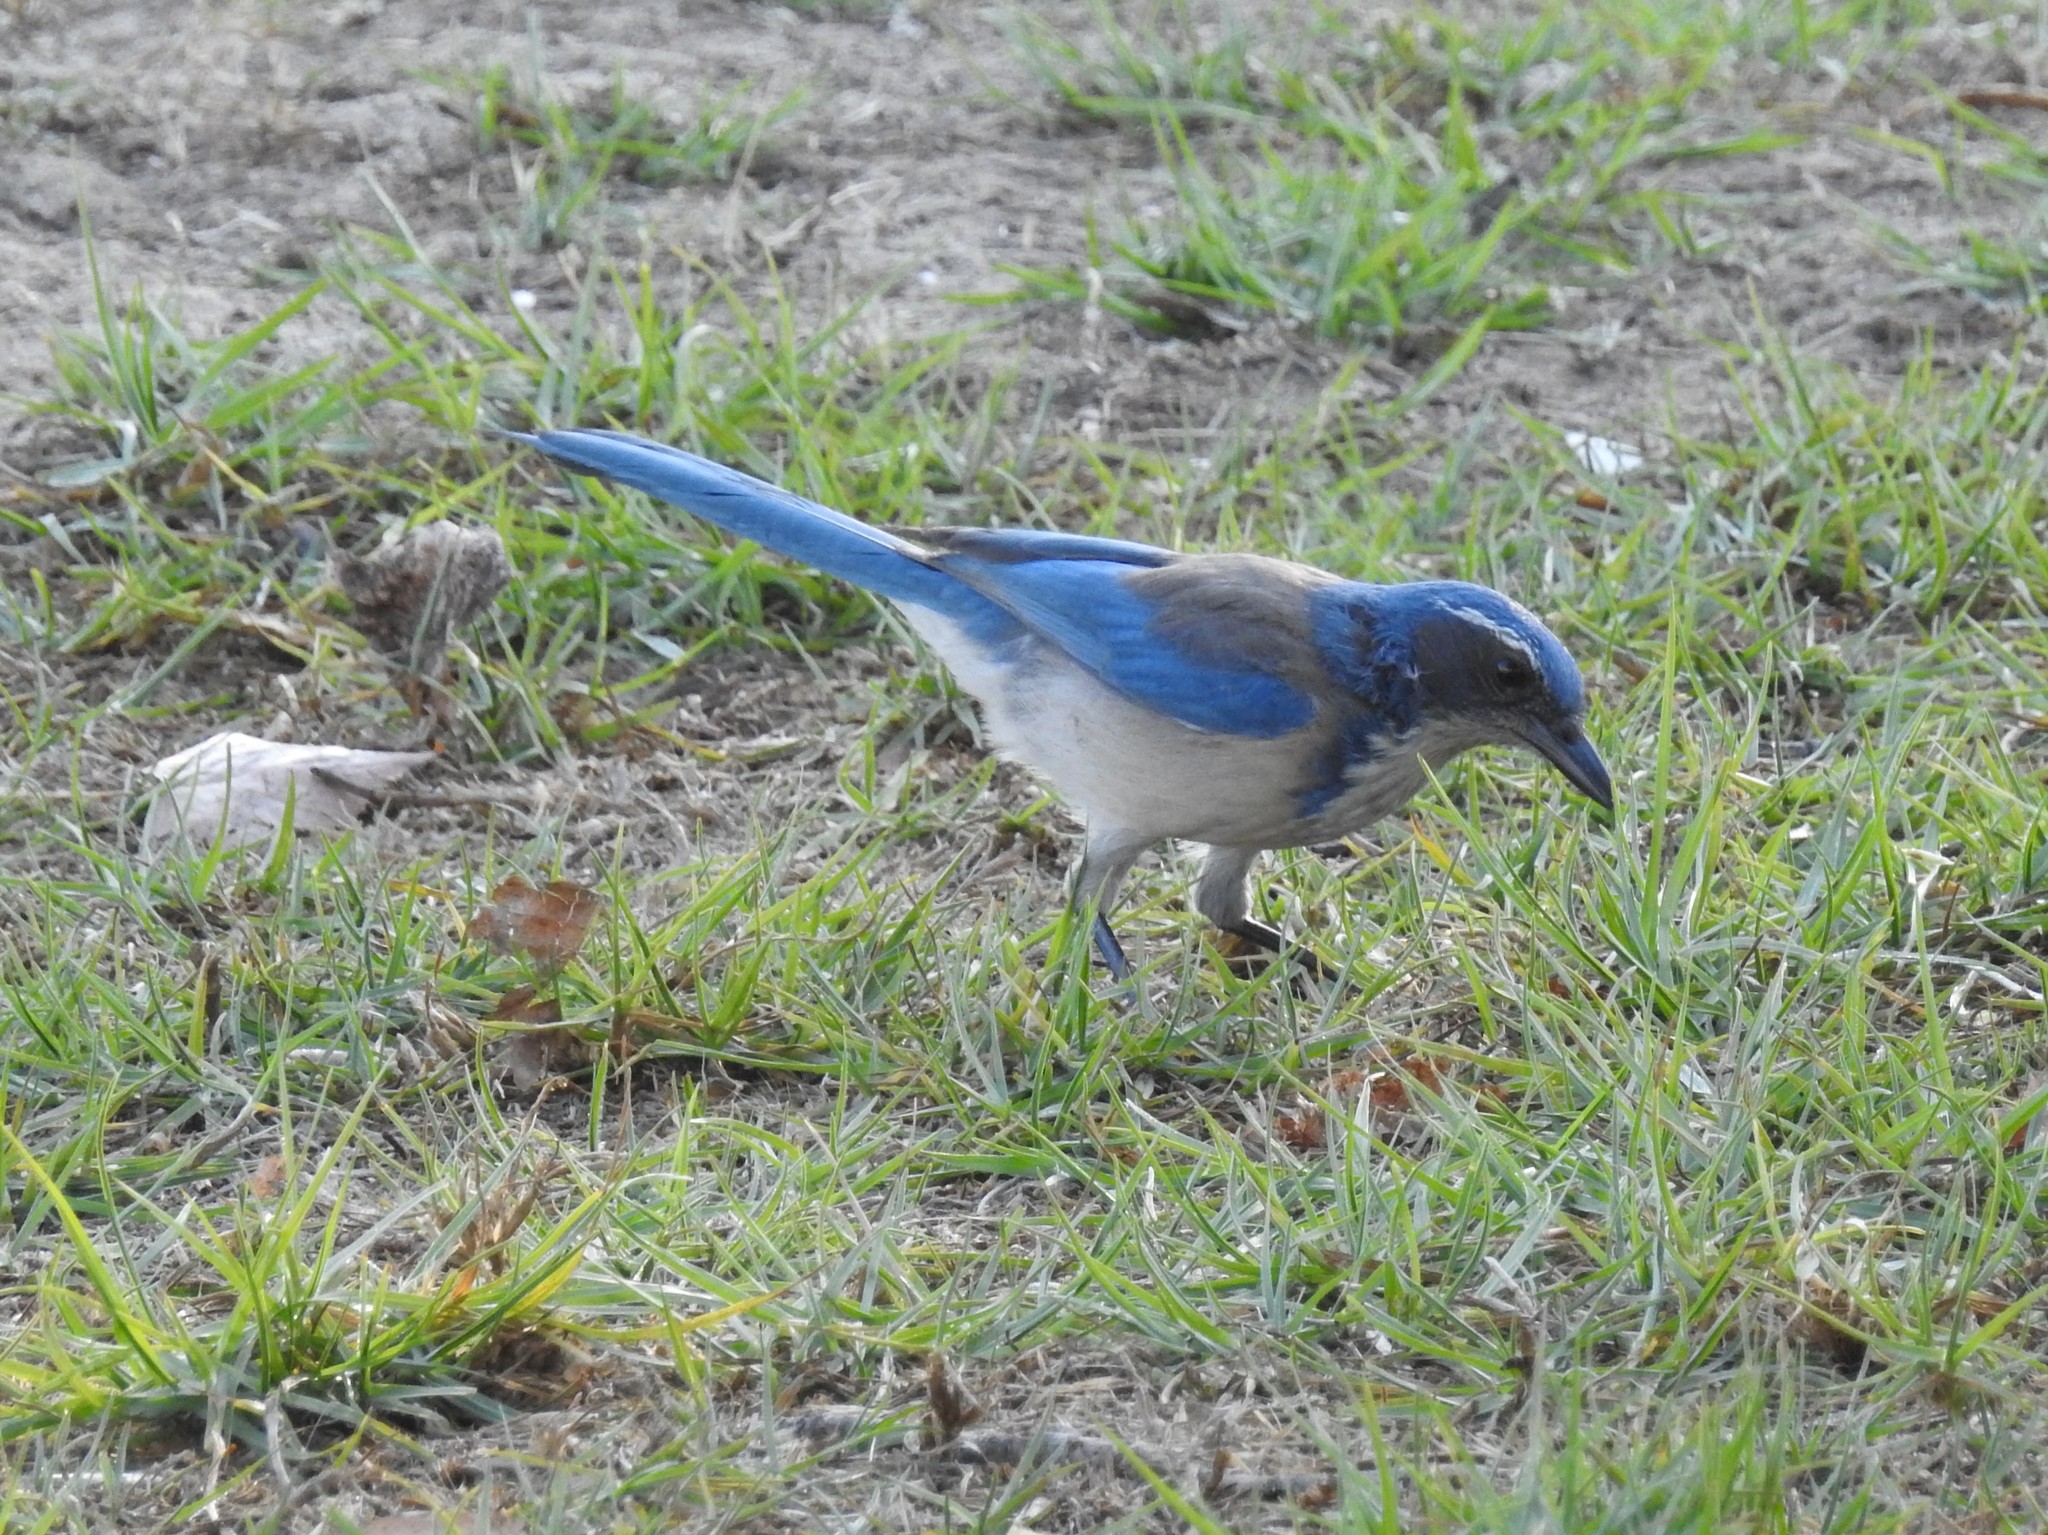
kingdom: Animalia
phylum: Chordata
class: Aves
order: Passeriformes
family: Corvidae
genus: Aphelocoma
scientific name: Aphelocoma californica
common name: California scrub-jay
